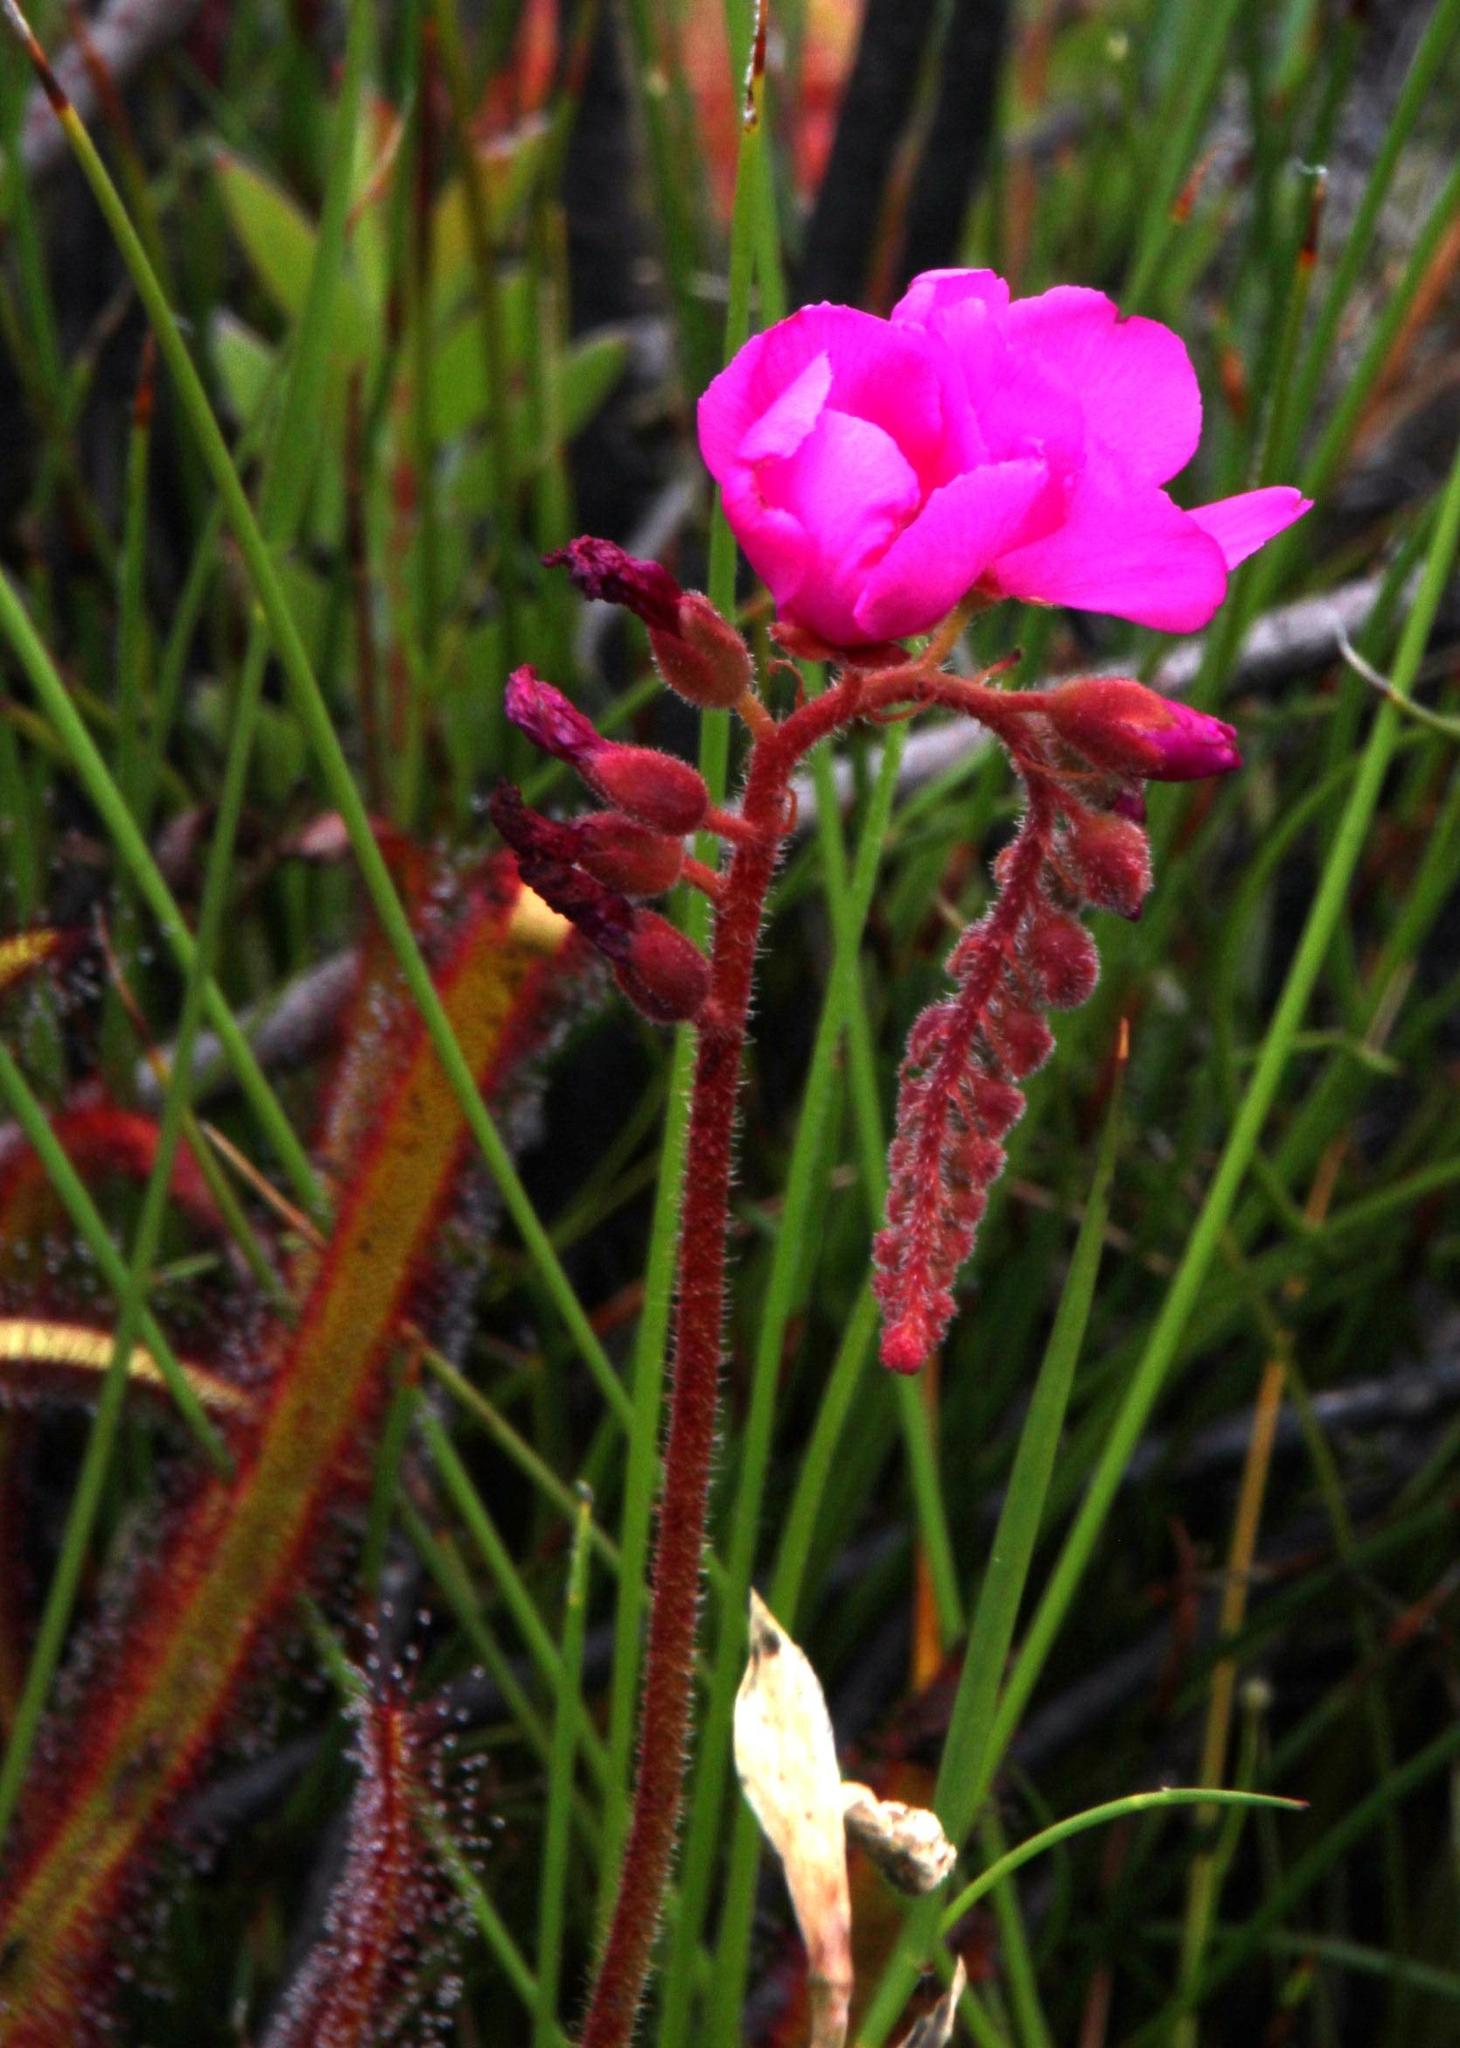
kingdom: Plantae
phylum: Tracheophyta
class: Magnoliopsida
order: Caryophyllales
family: Droseraceae
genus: Drosera
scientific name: Drosera capensis
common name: Cape sundew
